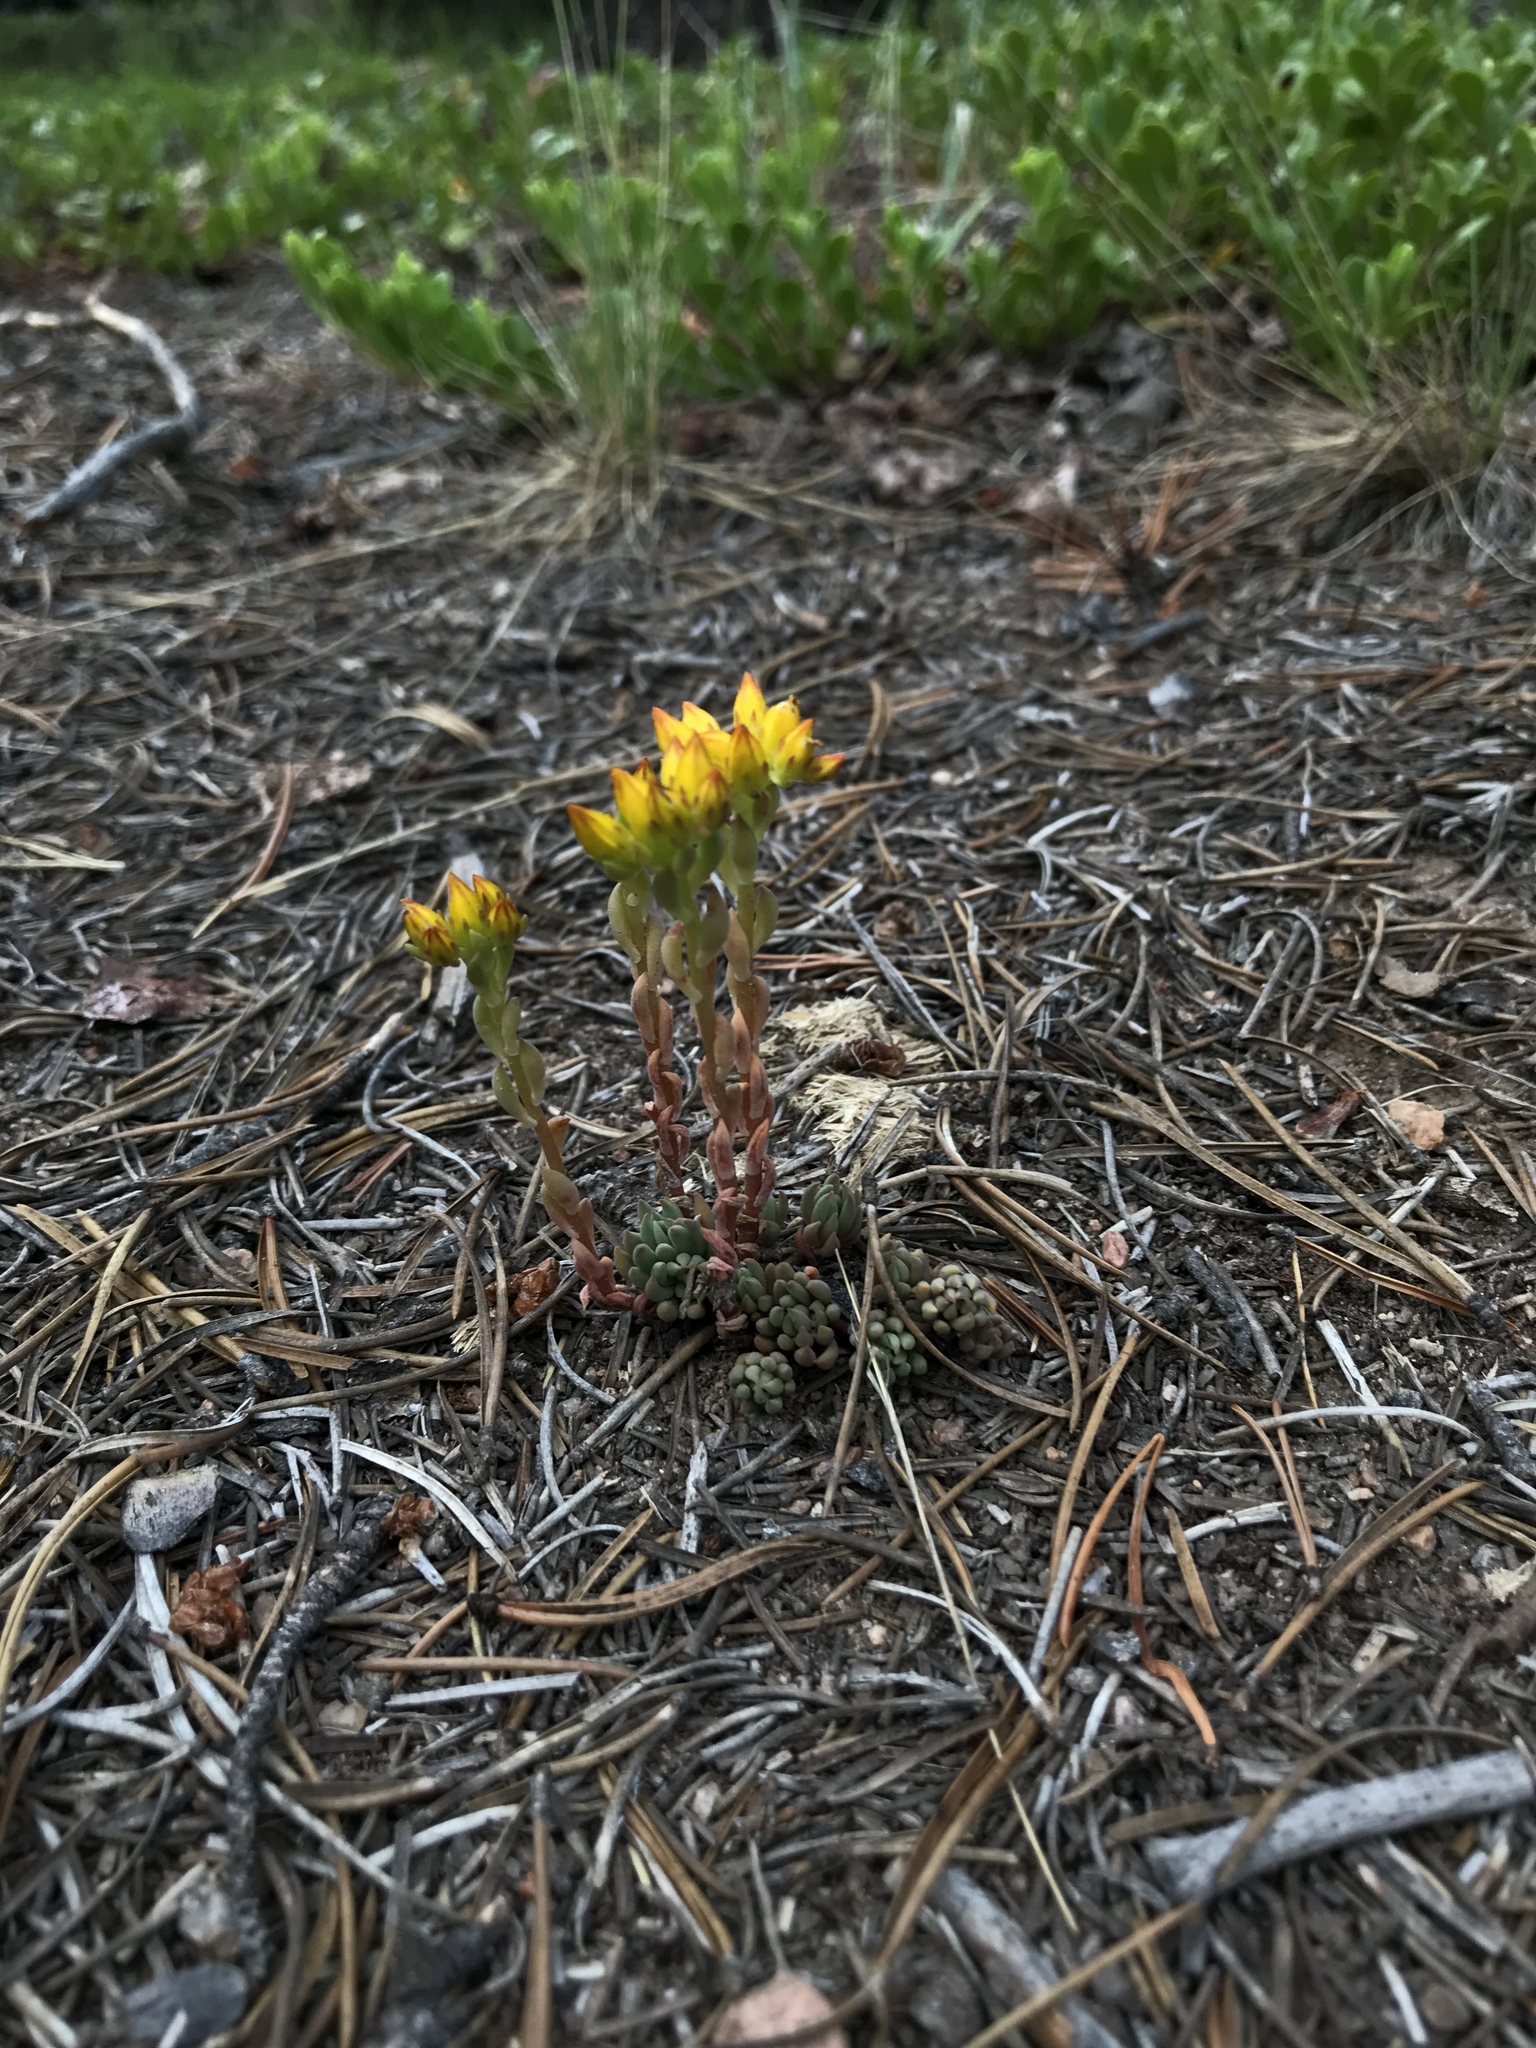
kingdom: Plantae
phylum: Tracheophyta
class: Magnoliopsida
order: Saxifragales
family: Crassulaceae
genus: Sedum
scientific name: Sedum lanceolatum
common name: Common stonecrop
